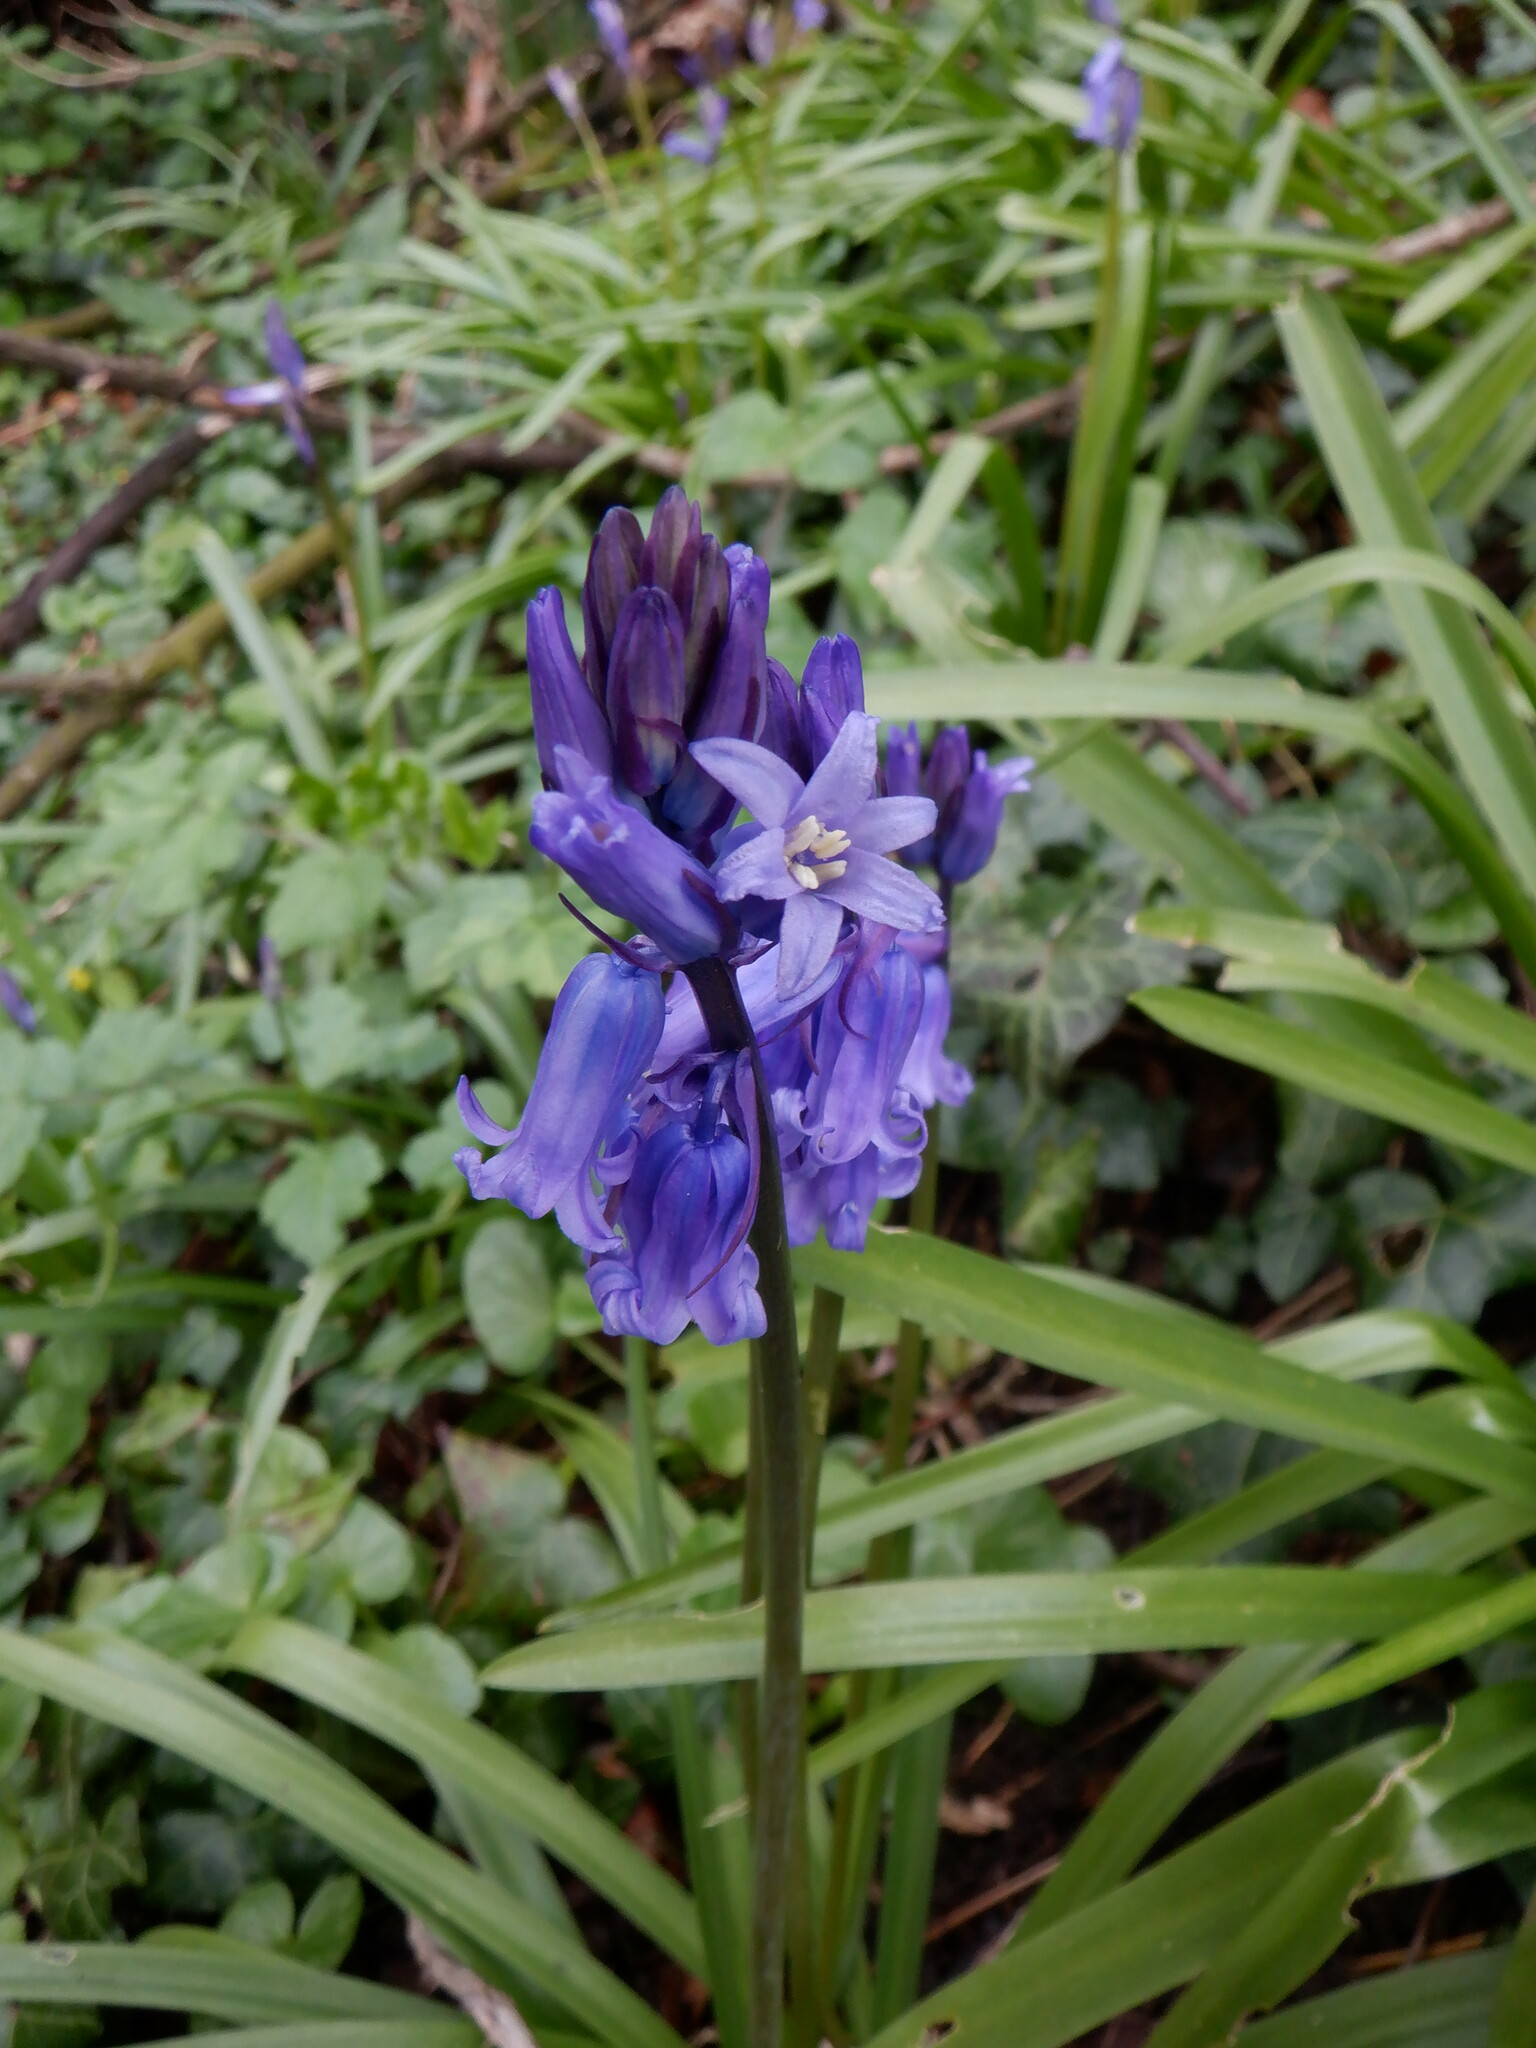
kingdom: Plantae
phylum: Tracheophyta
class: Liliopsida
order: Asparagales
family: Asparagaceae
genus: Hyacinthoides
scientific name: Hyacinthoides non-scripta
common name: Bluebell
